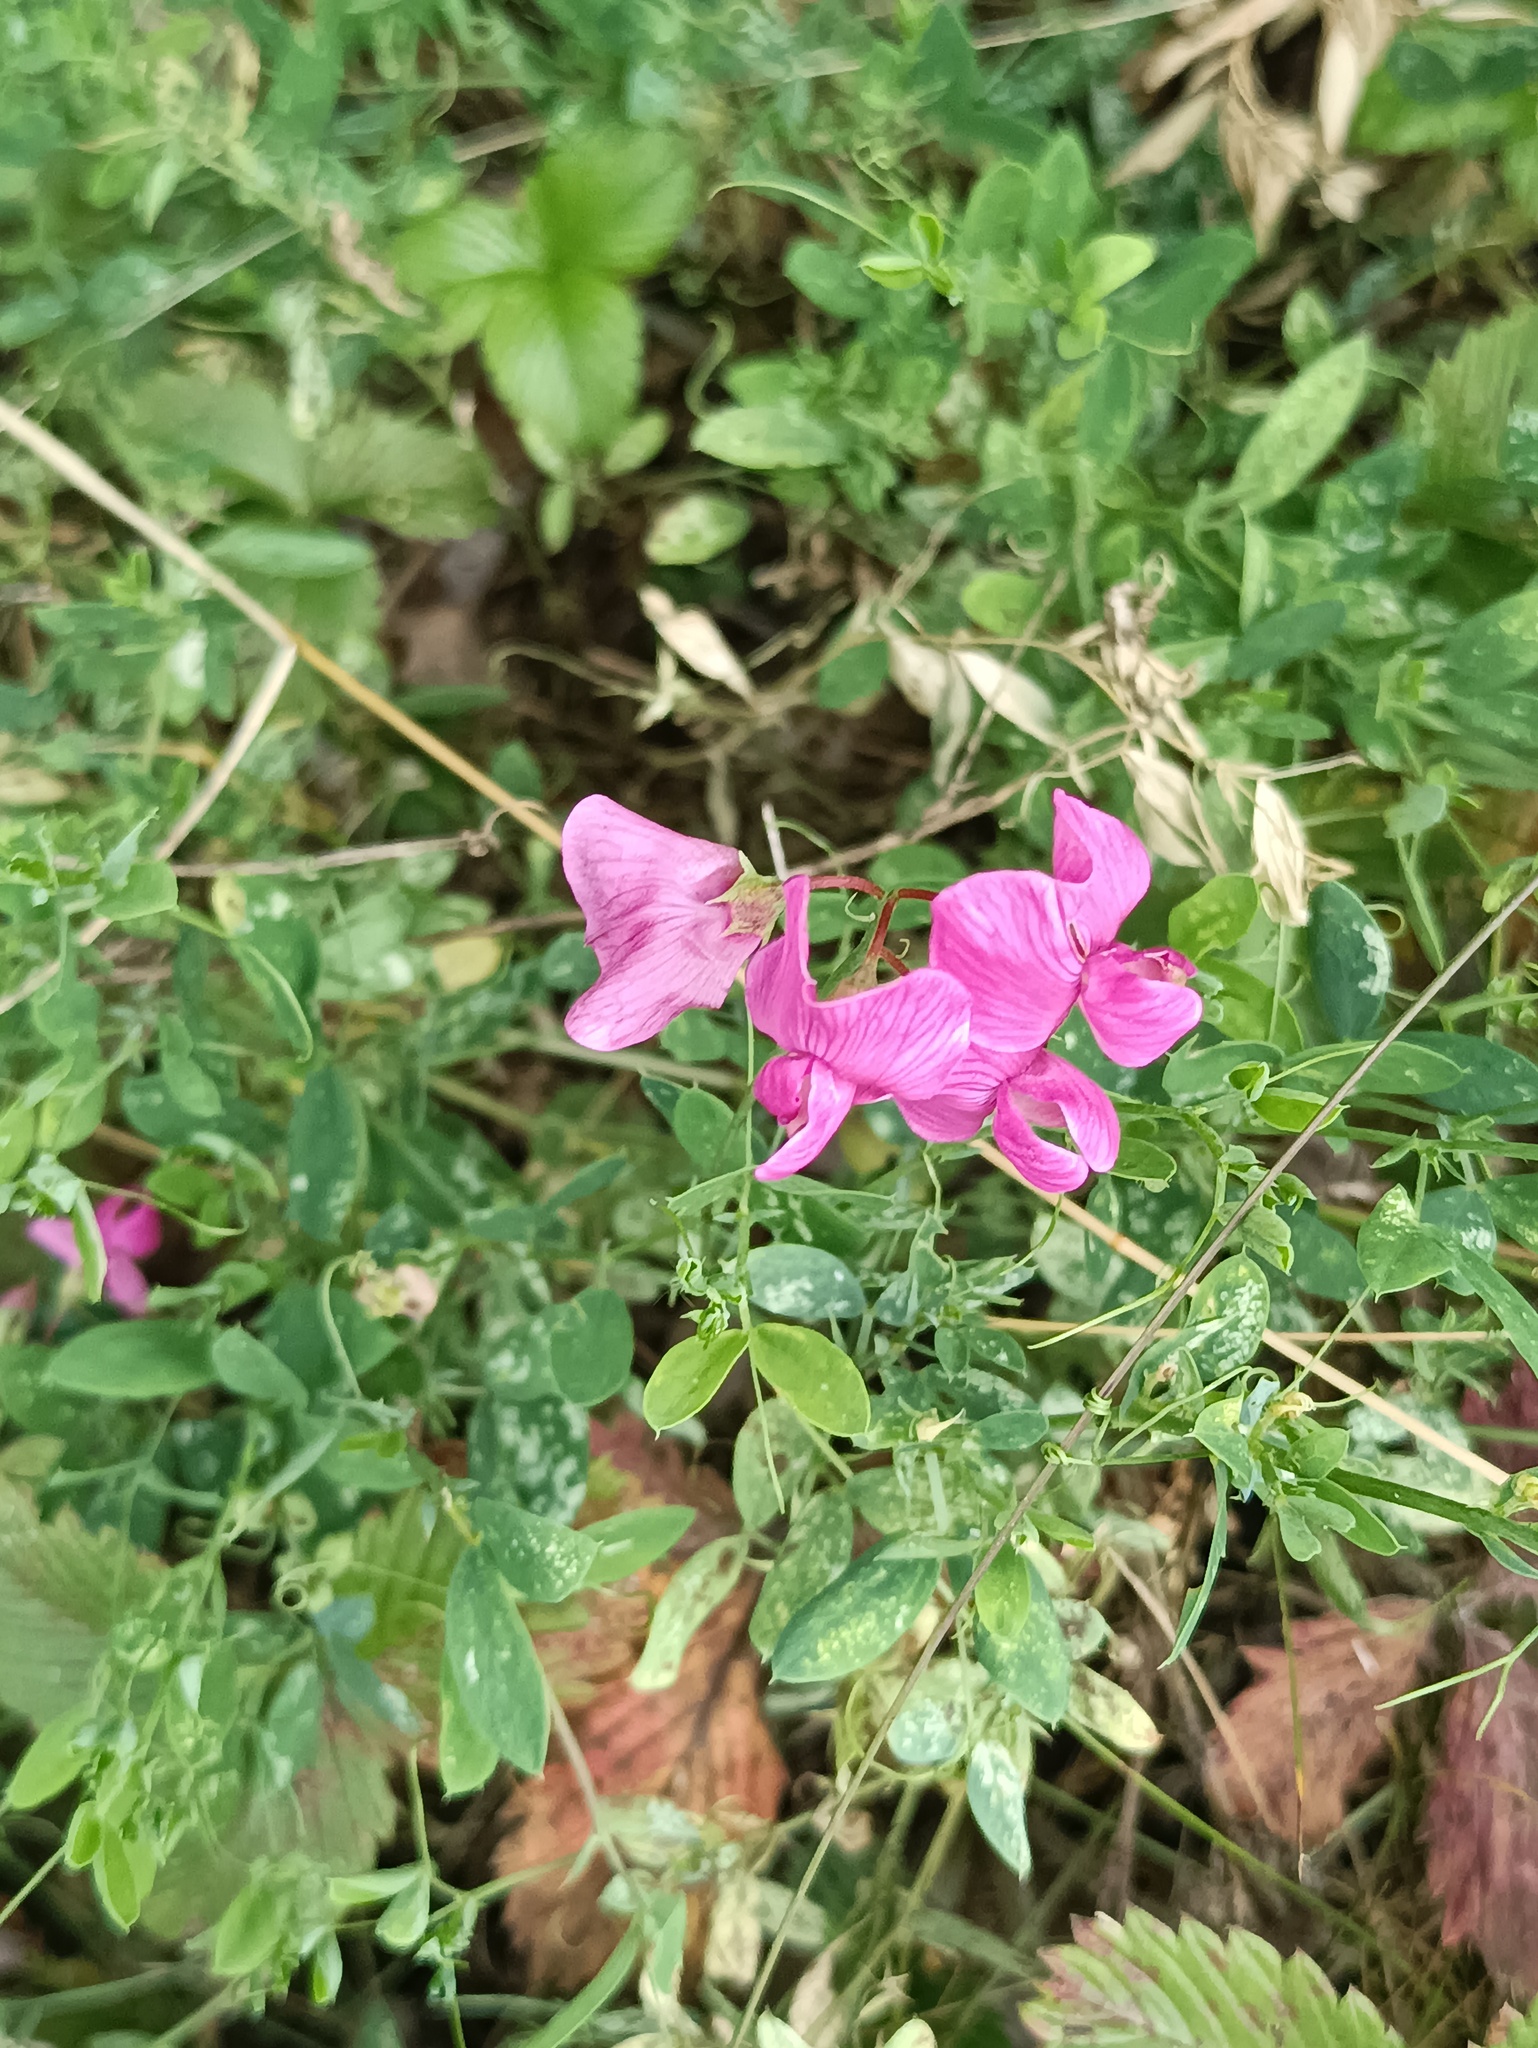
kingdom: Plantae
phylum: Tracheophyta
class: Magnoliopsida
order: Fabales
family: Fabaceae
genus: Lathyrus
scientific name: Lathyrus tuberosus
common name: Tuberous pea
